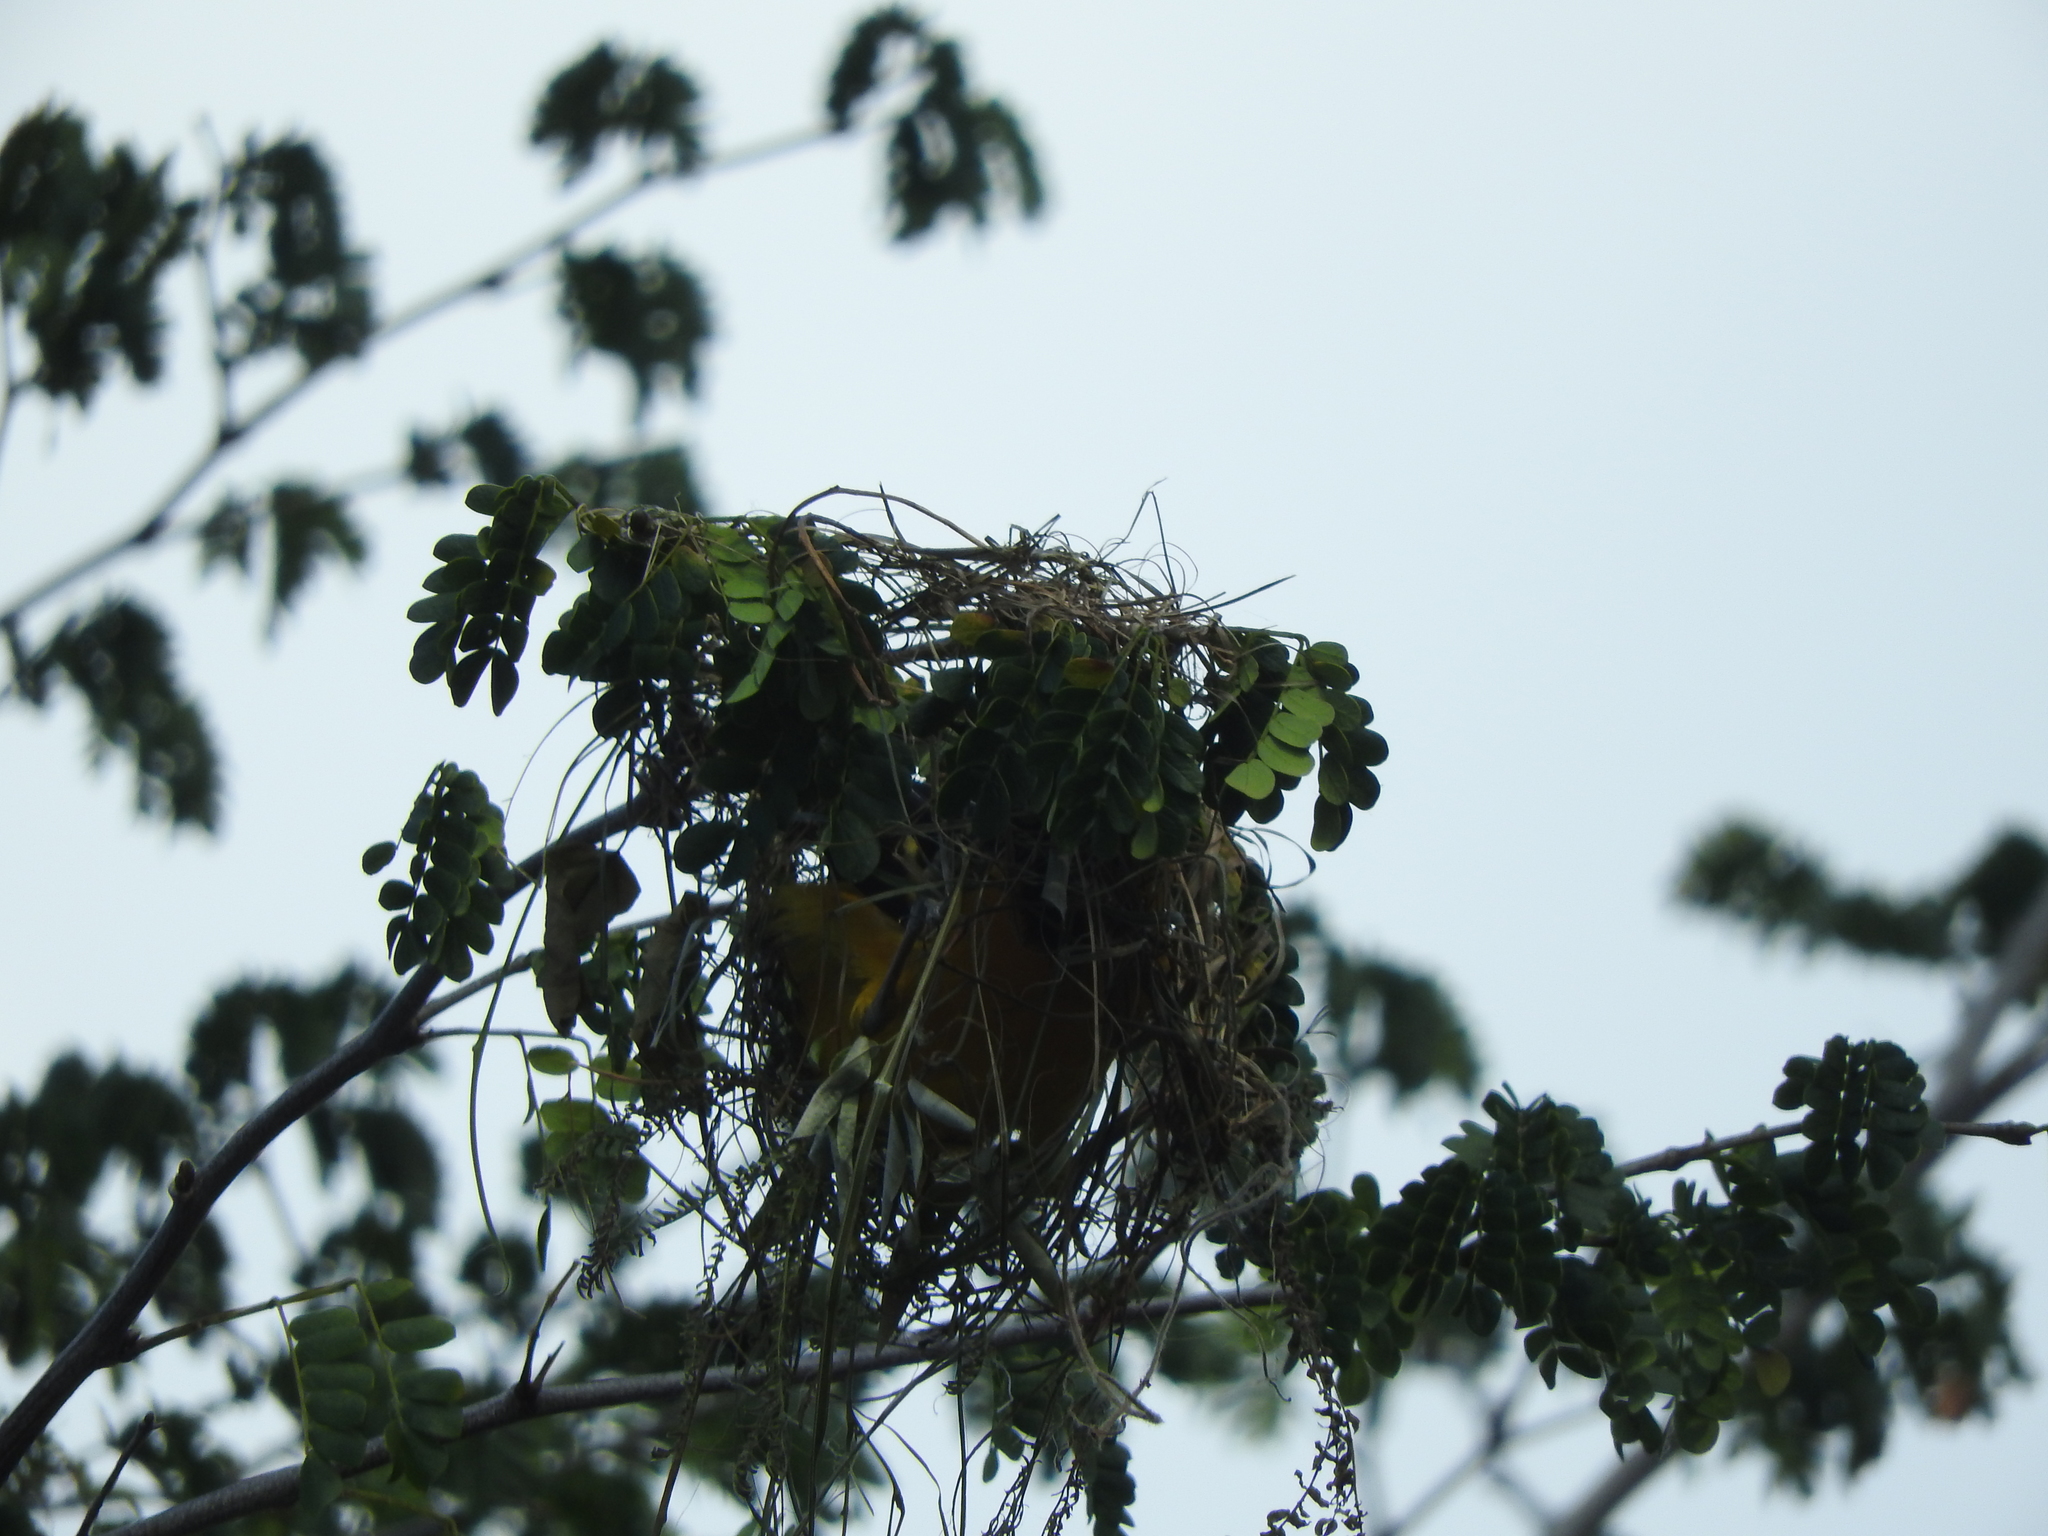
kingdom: Animalia
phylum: Chordata
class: Aves
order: Passeriformes
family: Icteridae
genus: Icterus
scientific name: Icterus gularis
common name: Altamira oriole
